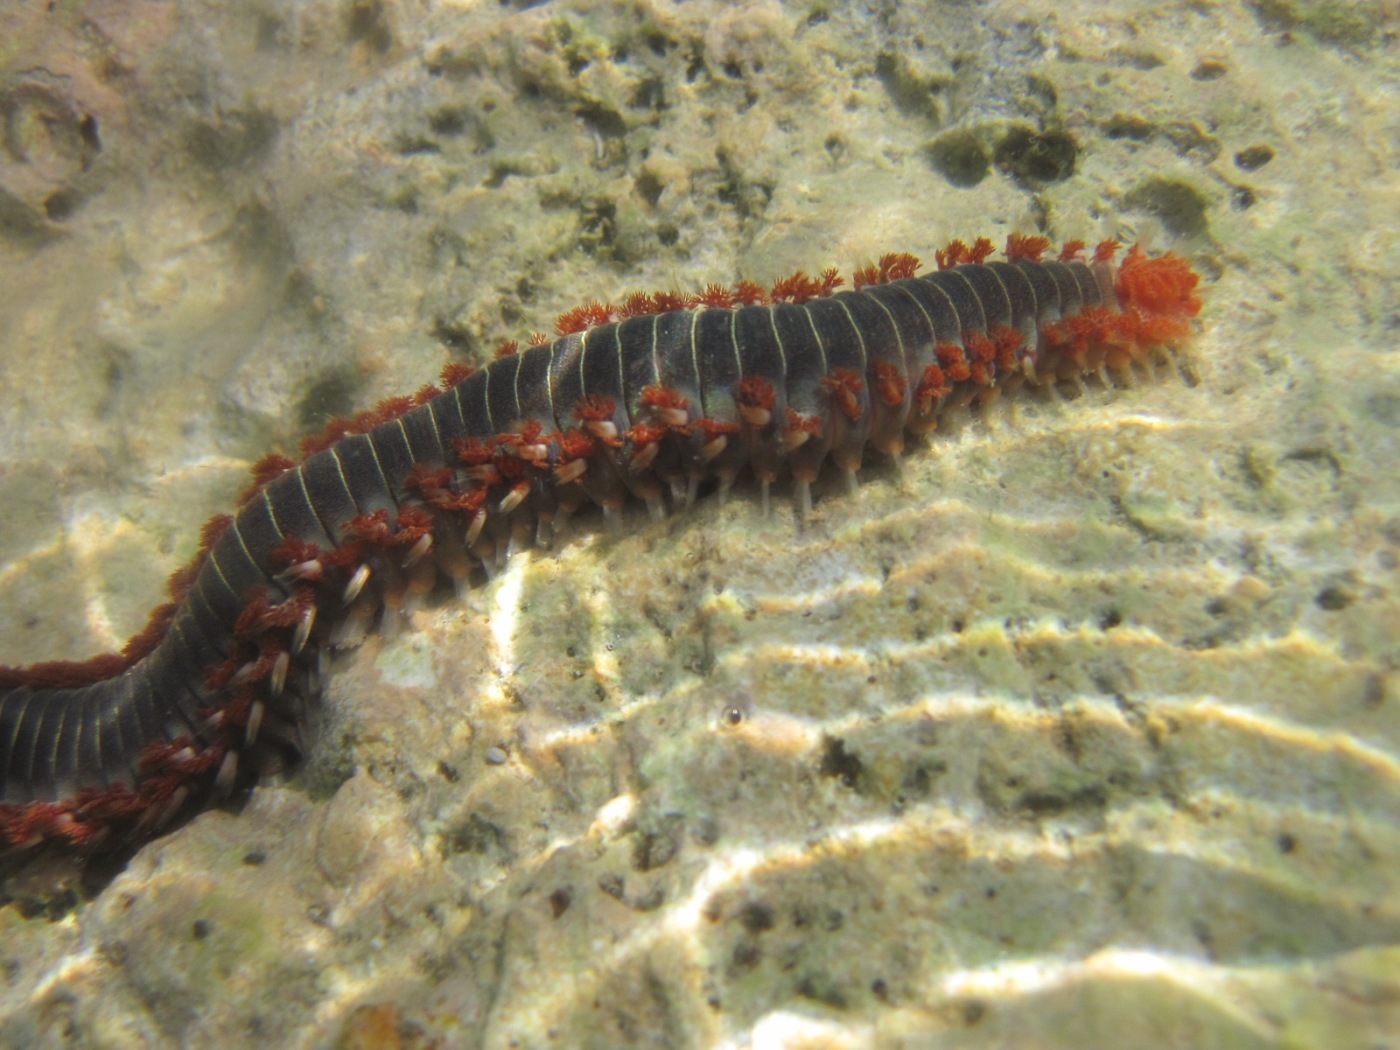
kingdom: Animalia
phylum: Annelida
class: Polychaeta
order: Amphinomida
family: Amphinomidae
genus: Hermodice
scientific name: Hermodice carunculata
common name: Bearded fireworm
